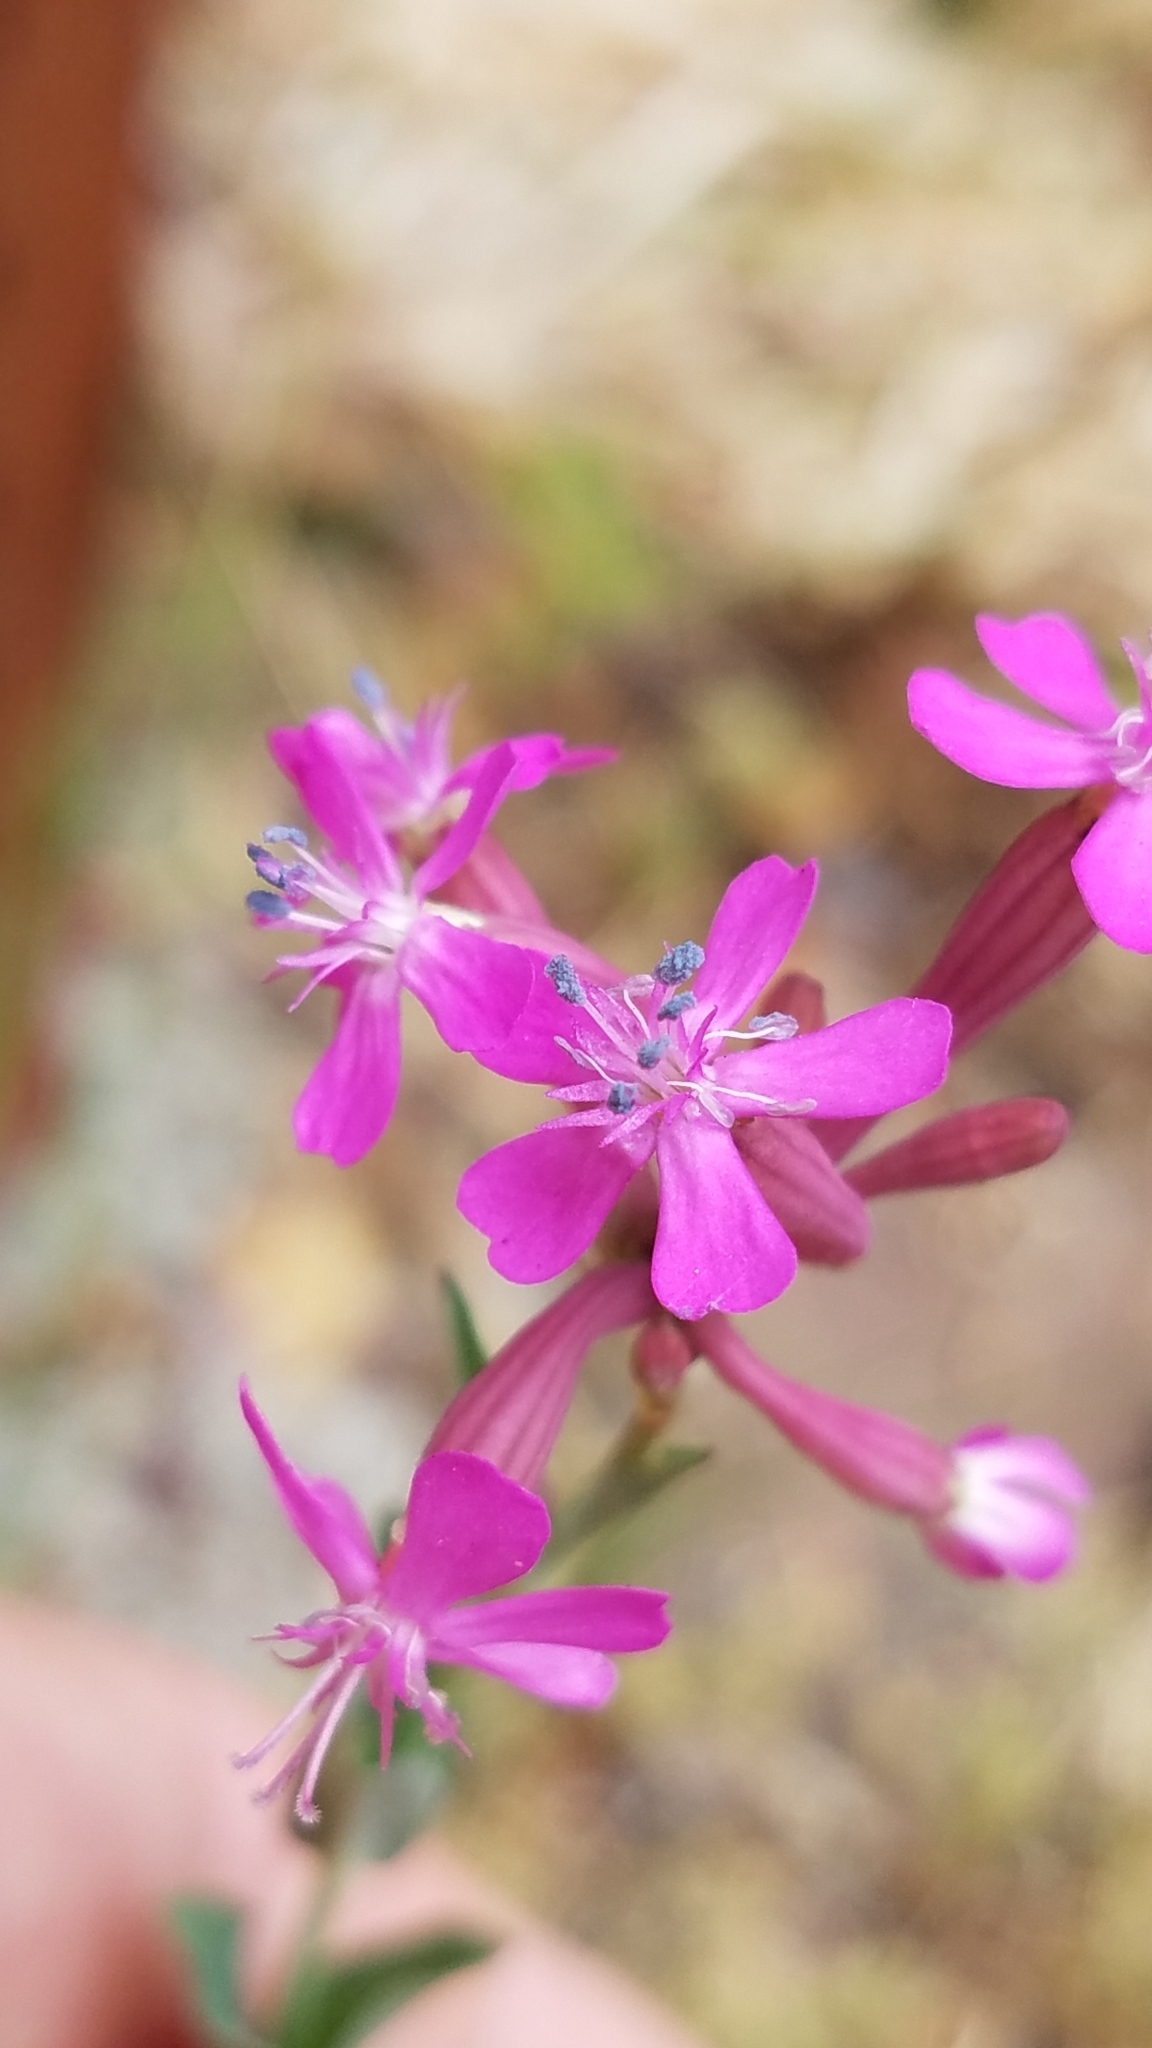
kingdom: Plantae
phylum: Tracheophyta
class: Magnoliopsida
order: Caryophyllales
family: Caryophyllaceae
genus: Atocion
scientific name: Atocion armeria
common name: Sweet william catchfly
